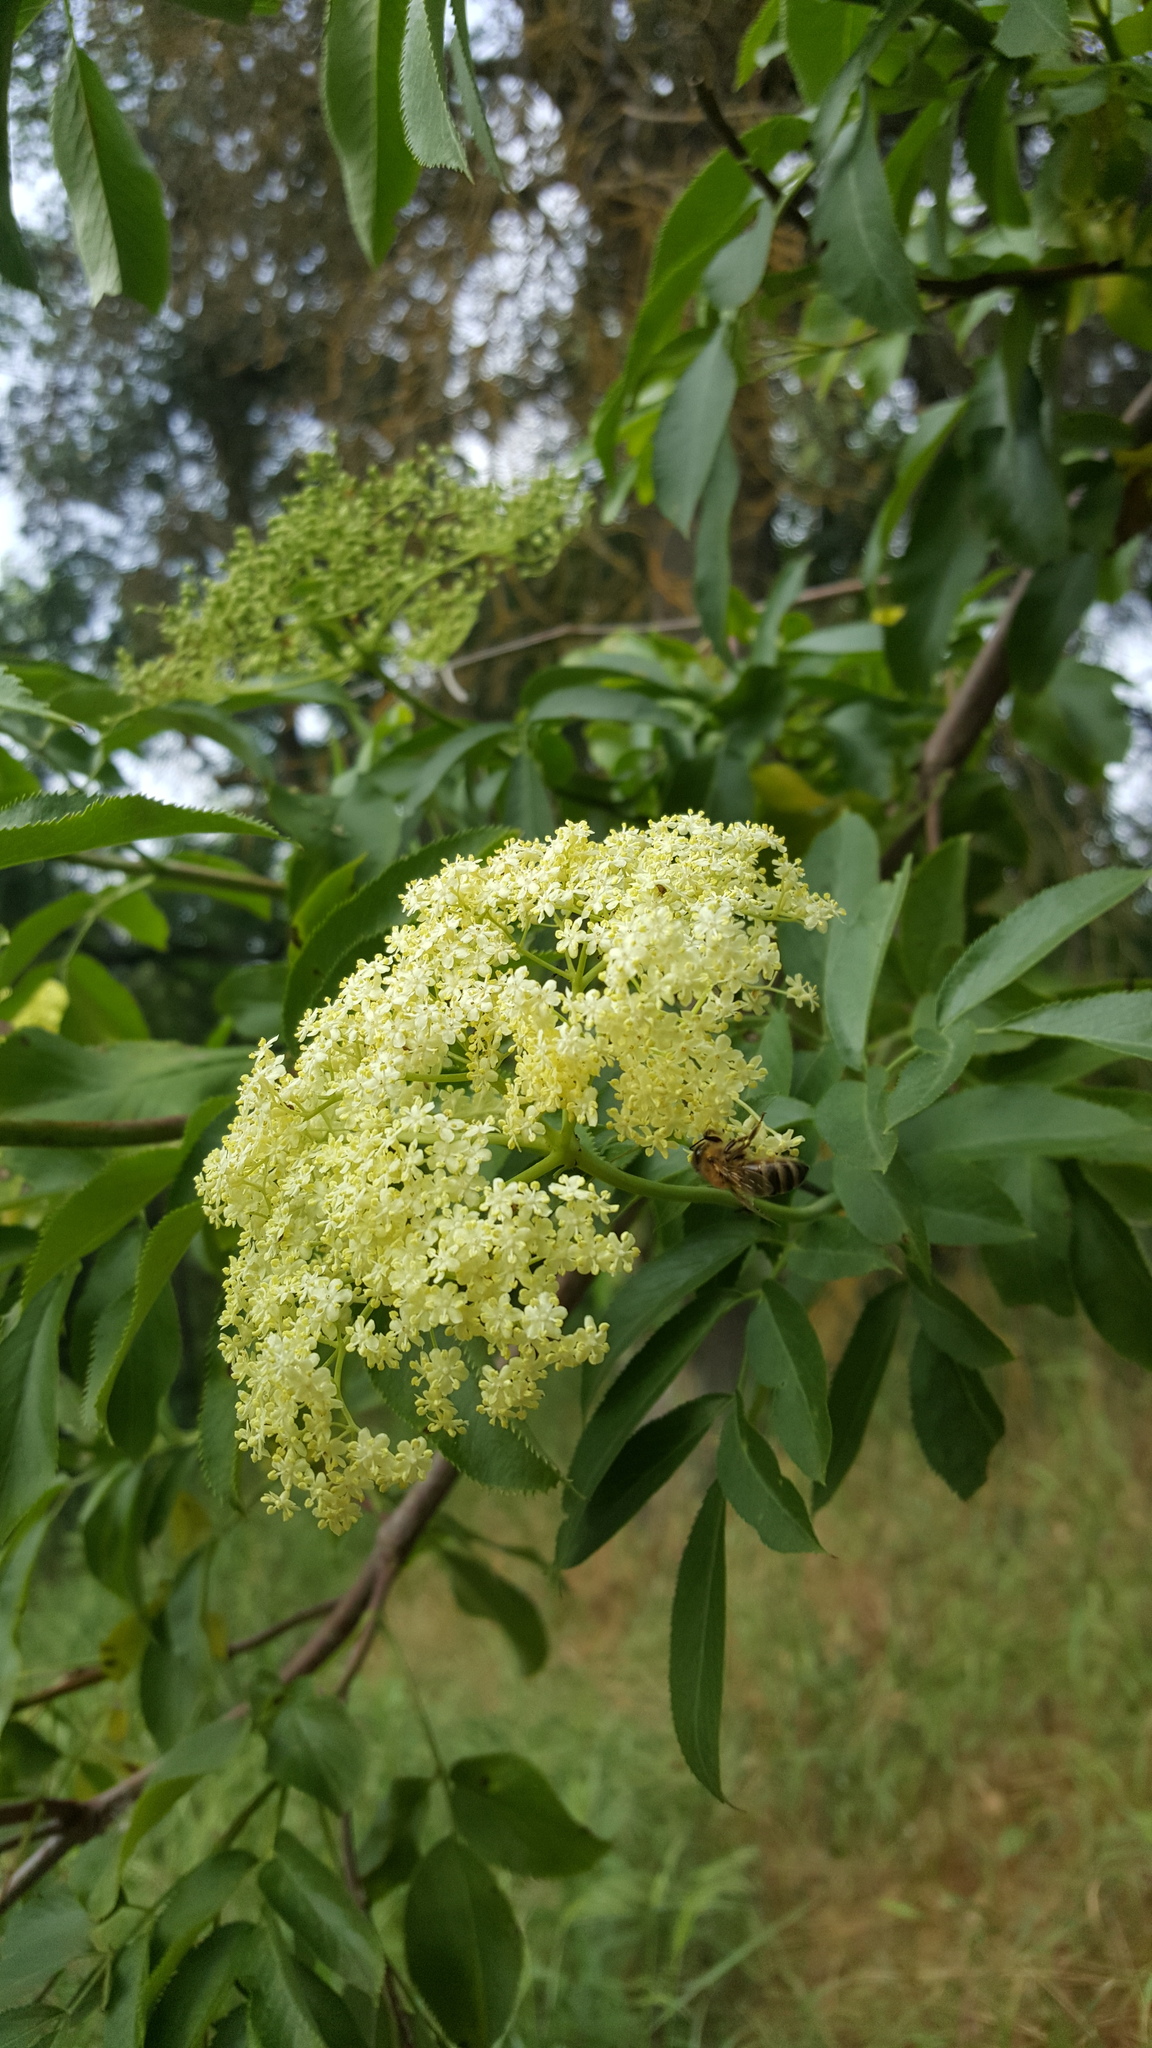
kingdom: Plantae
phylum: Tracheophyta
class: Magnoliopsida
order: Dipsacales
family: Viburnaceae
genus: Sambucus
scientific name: Sambucus cerulea
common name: Blue elder
